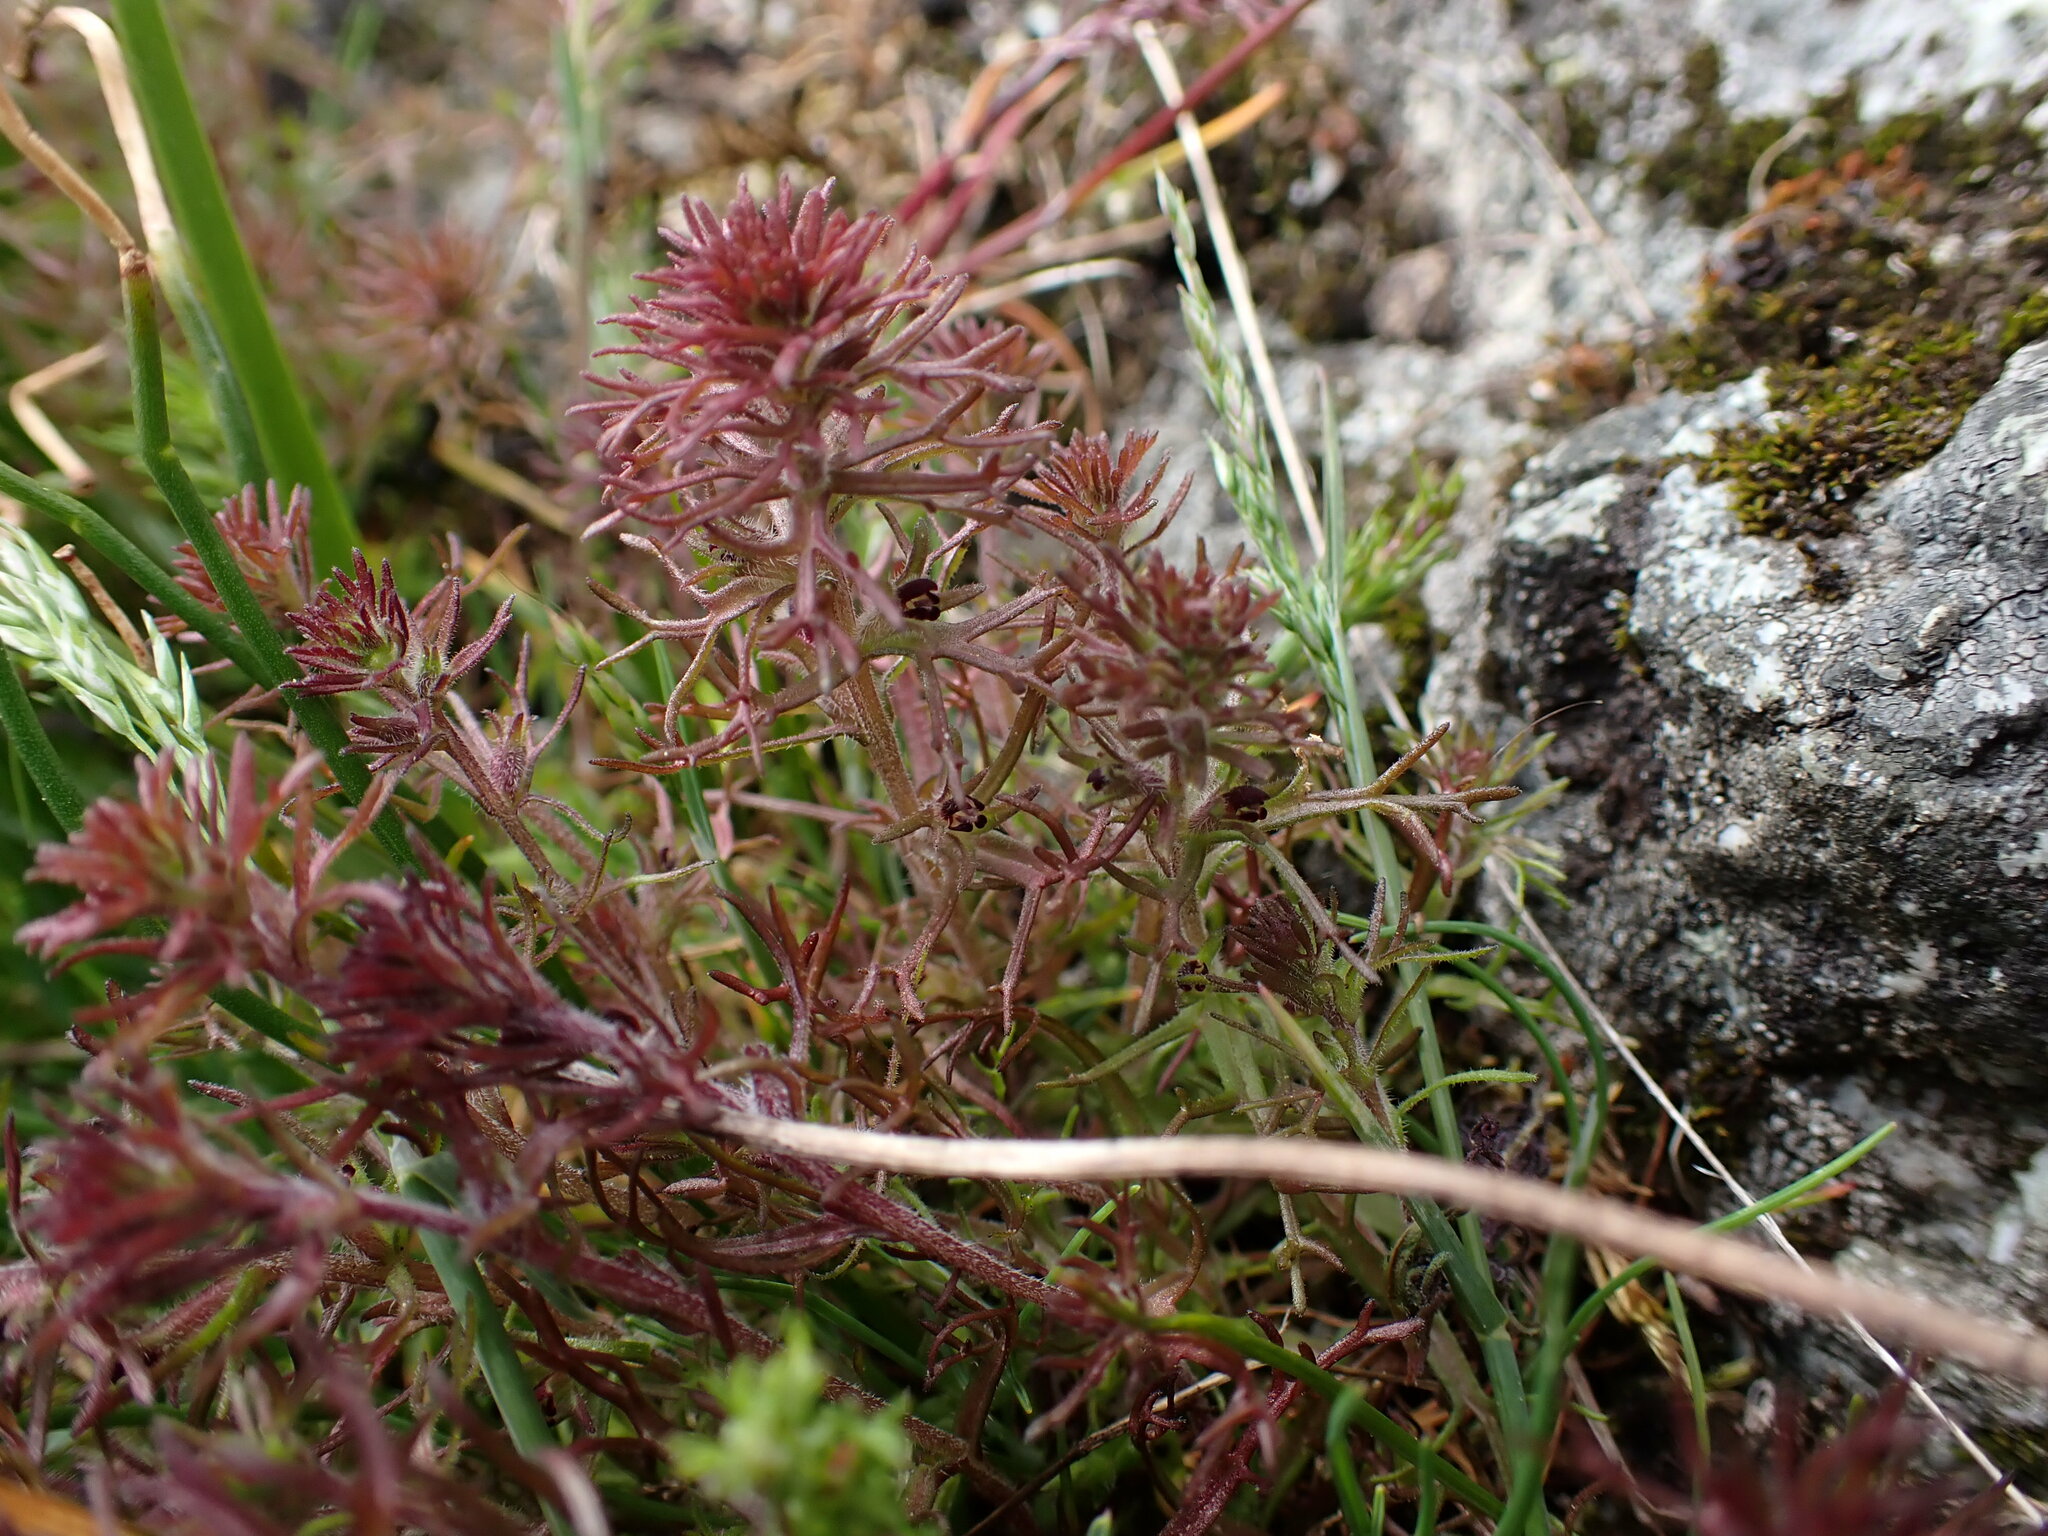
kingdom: Plantae
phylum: Tracheophyta
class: Magnoliopsida
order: Lamiales
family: Orobanchaceae
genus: Triphysaria
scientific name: Triphysaria pusilla
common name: Dwarf false owl-clover
